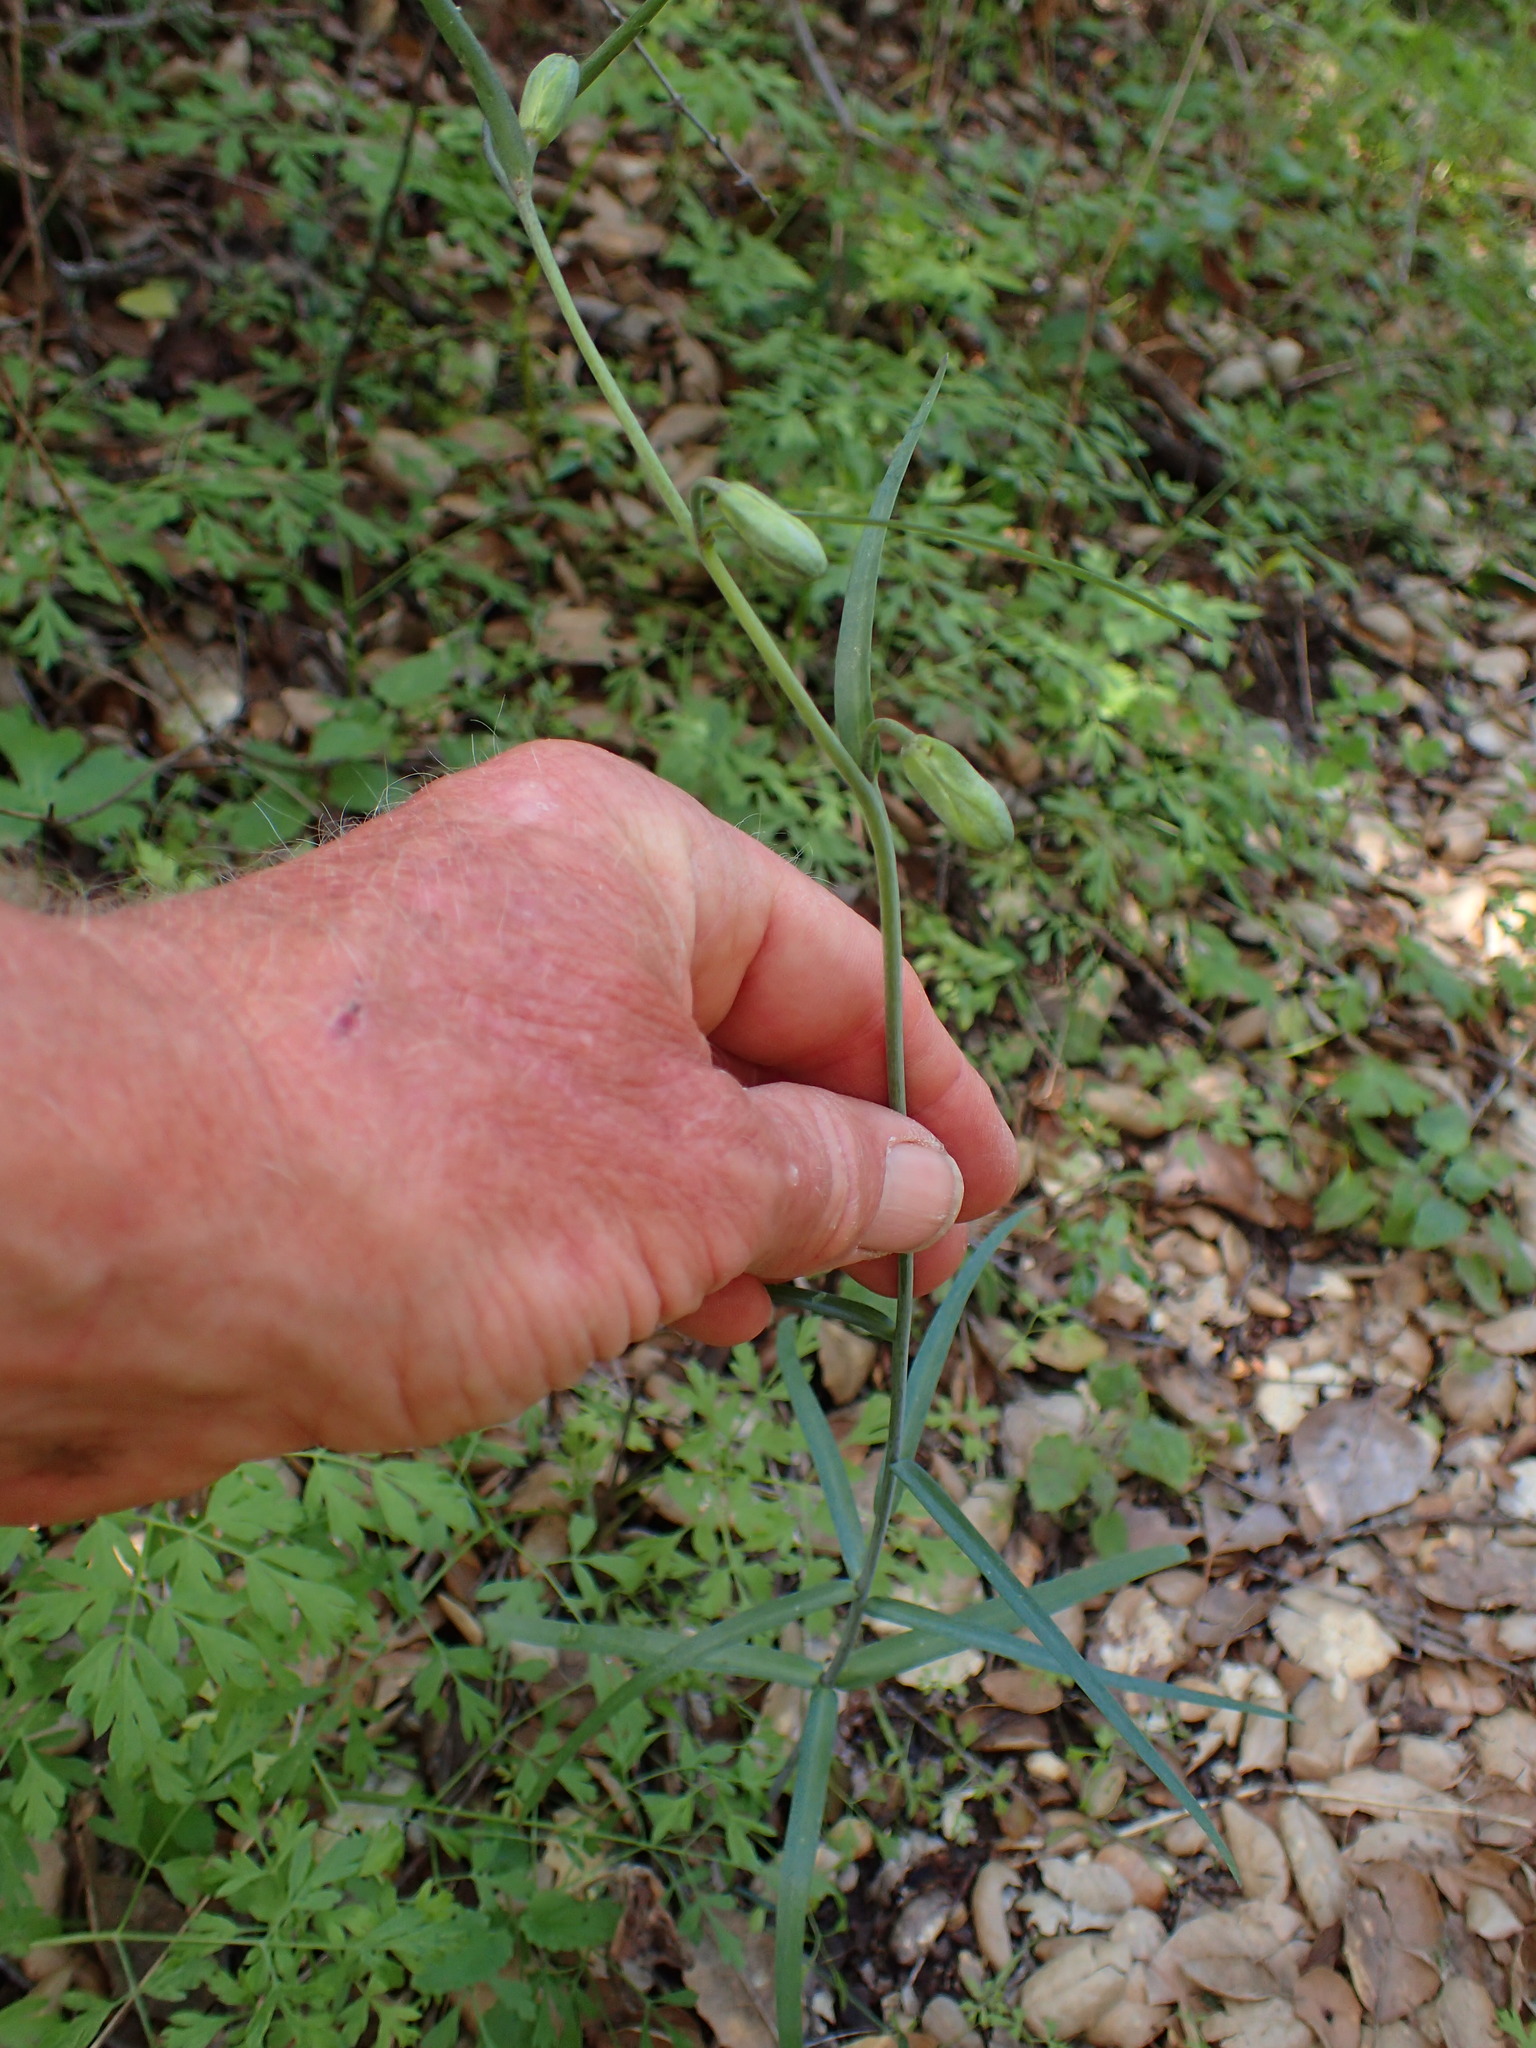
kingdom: Plantae
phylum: Tracheophyta
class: Liliopsida
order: Liliales
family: Liliaceae
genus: Fritillaria
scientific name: Fritillaria ojaiensis
